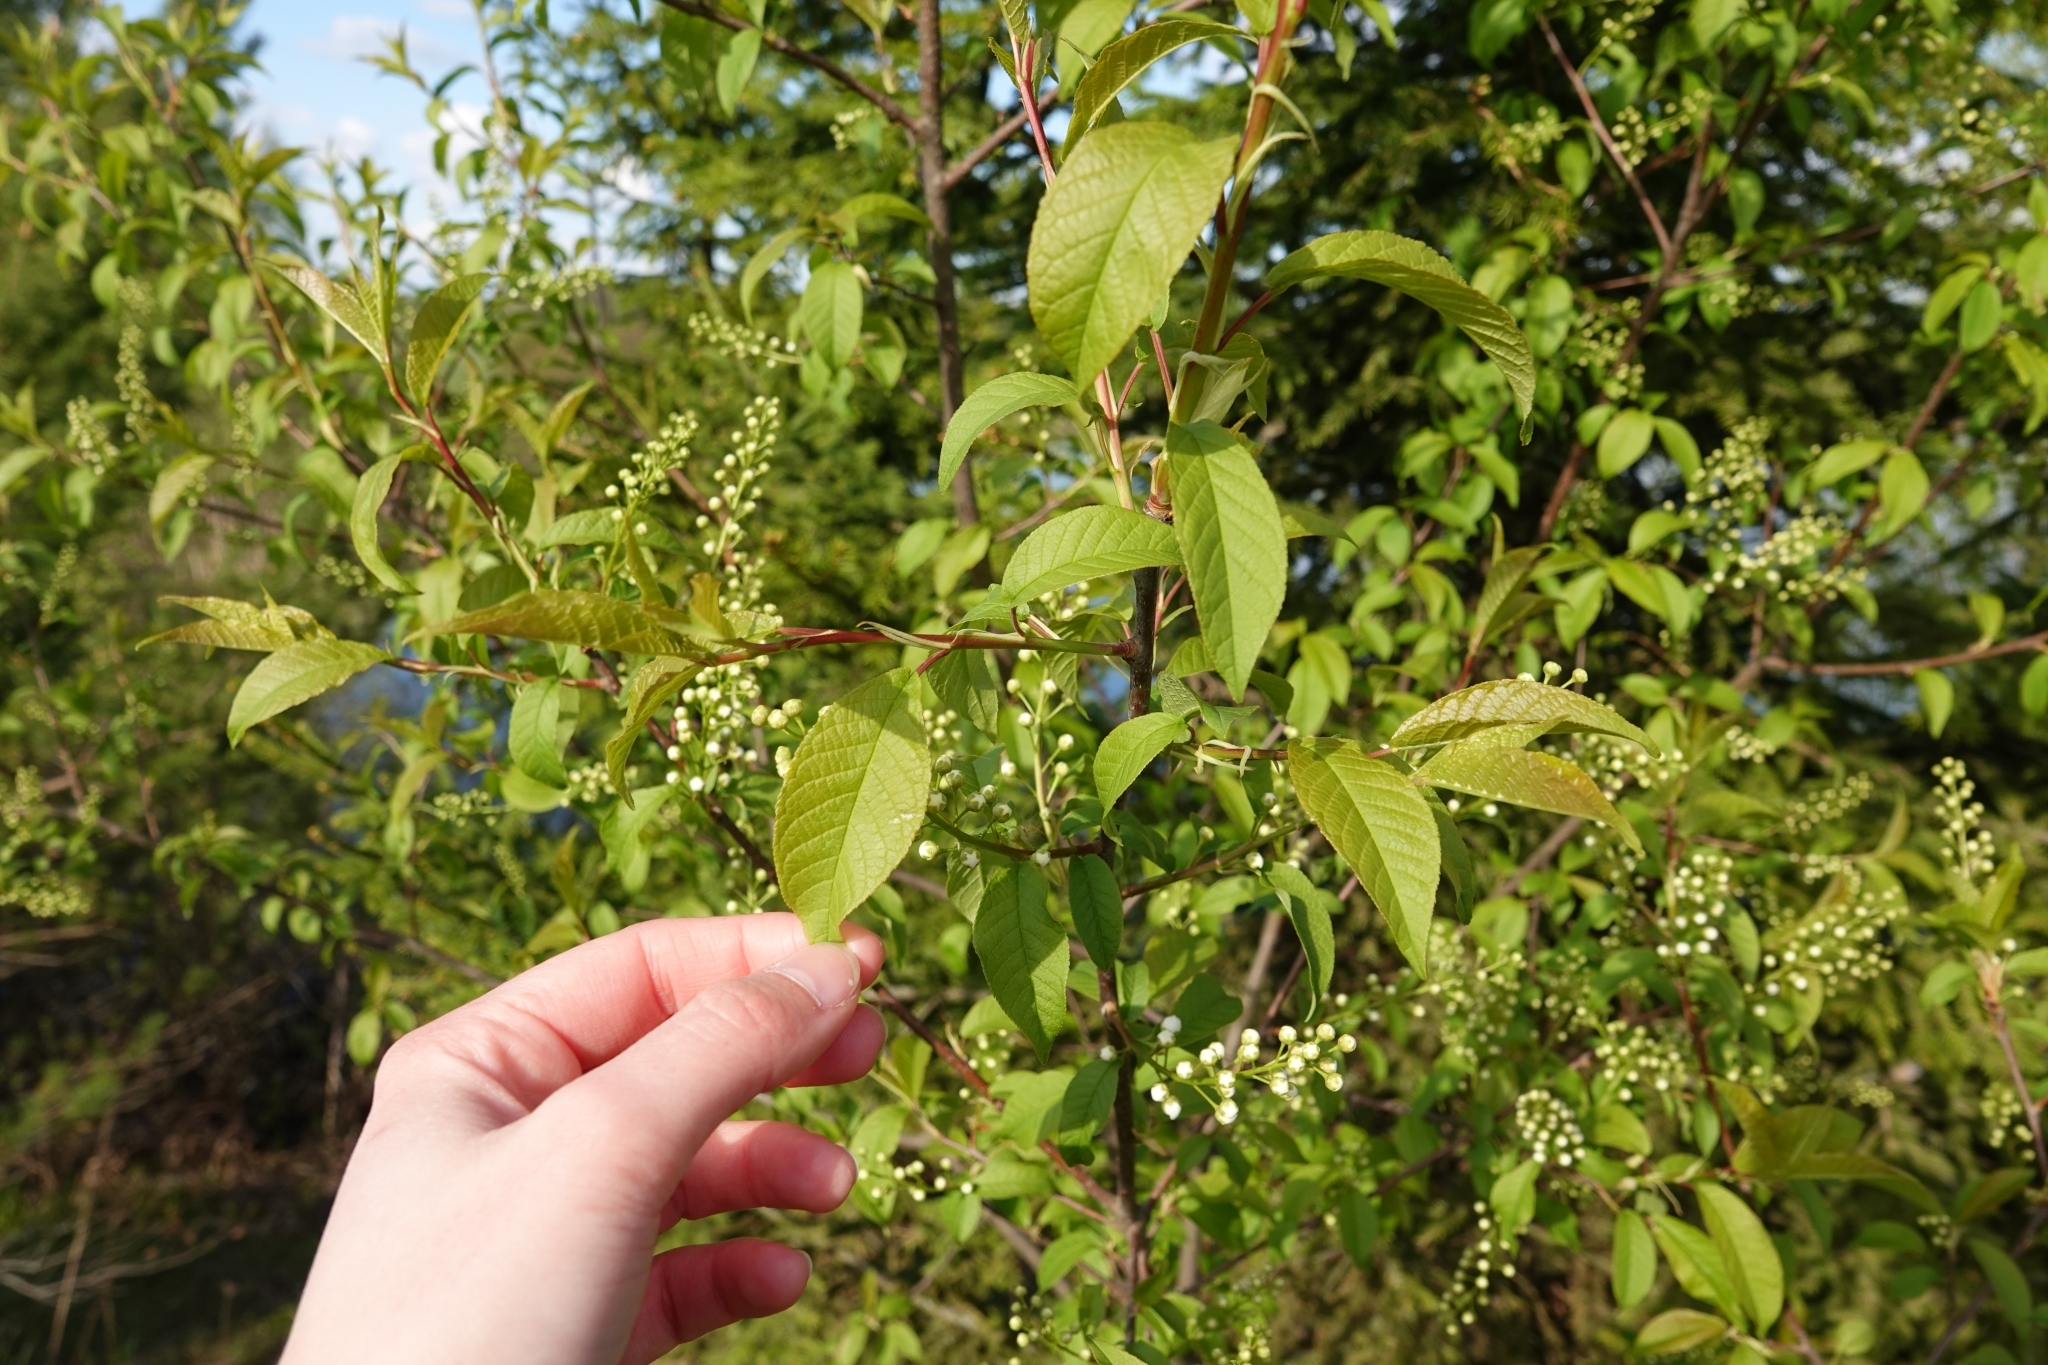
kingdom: Plantae
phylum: Tracheophyta
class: Magnoliopsida
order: Rosales
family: Rosaceae
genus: Prunus
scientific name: Prunus padus
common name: Bird cherry
